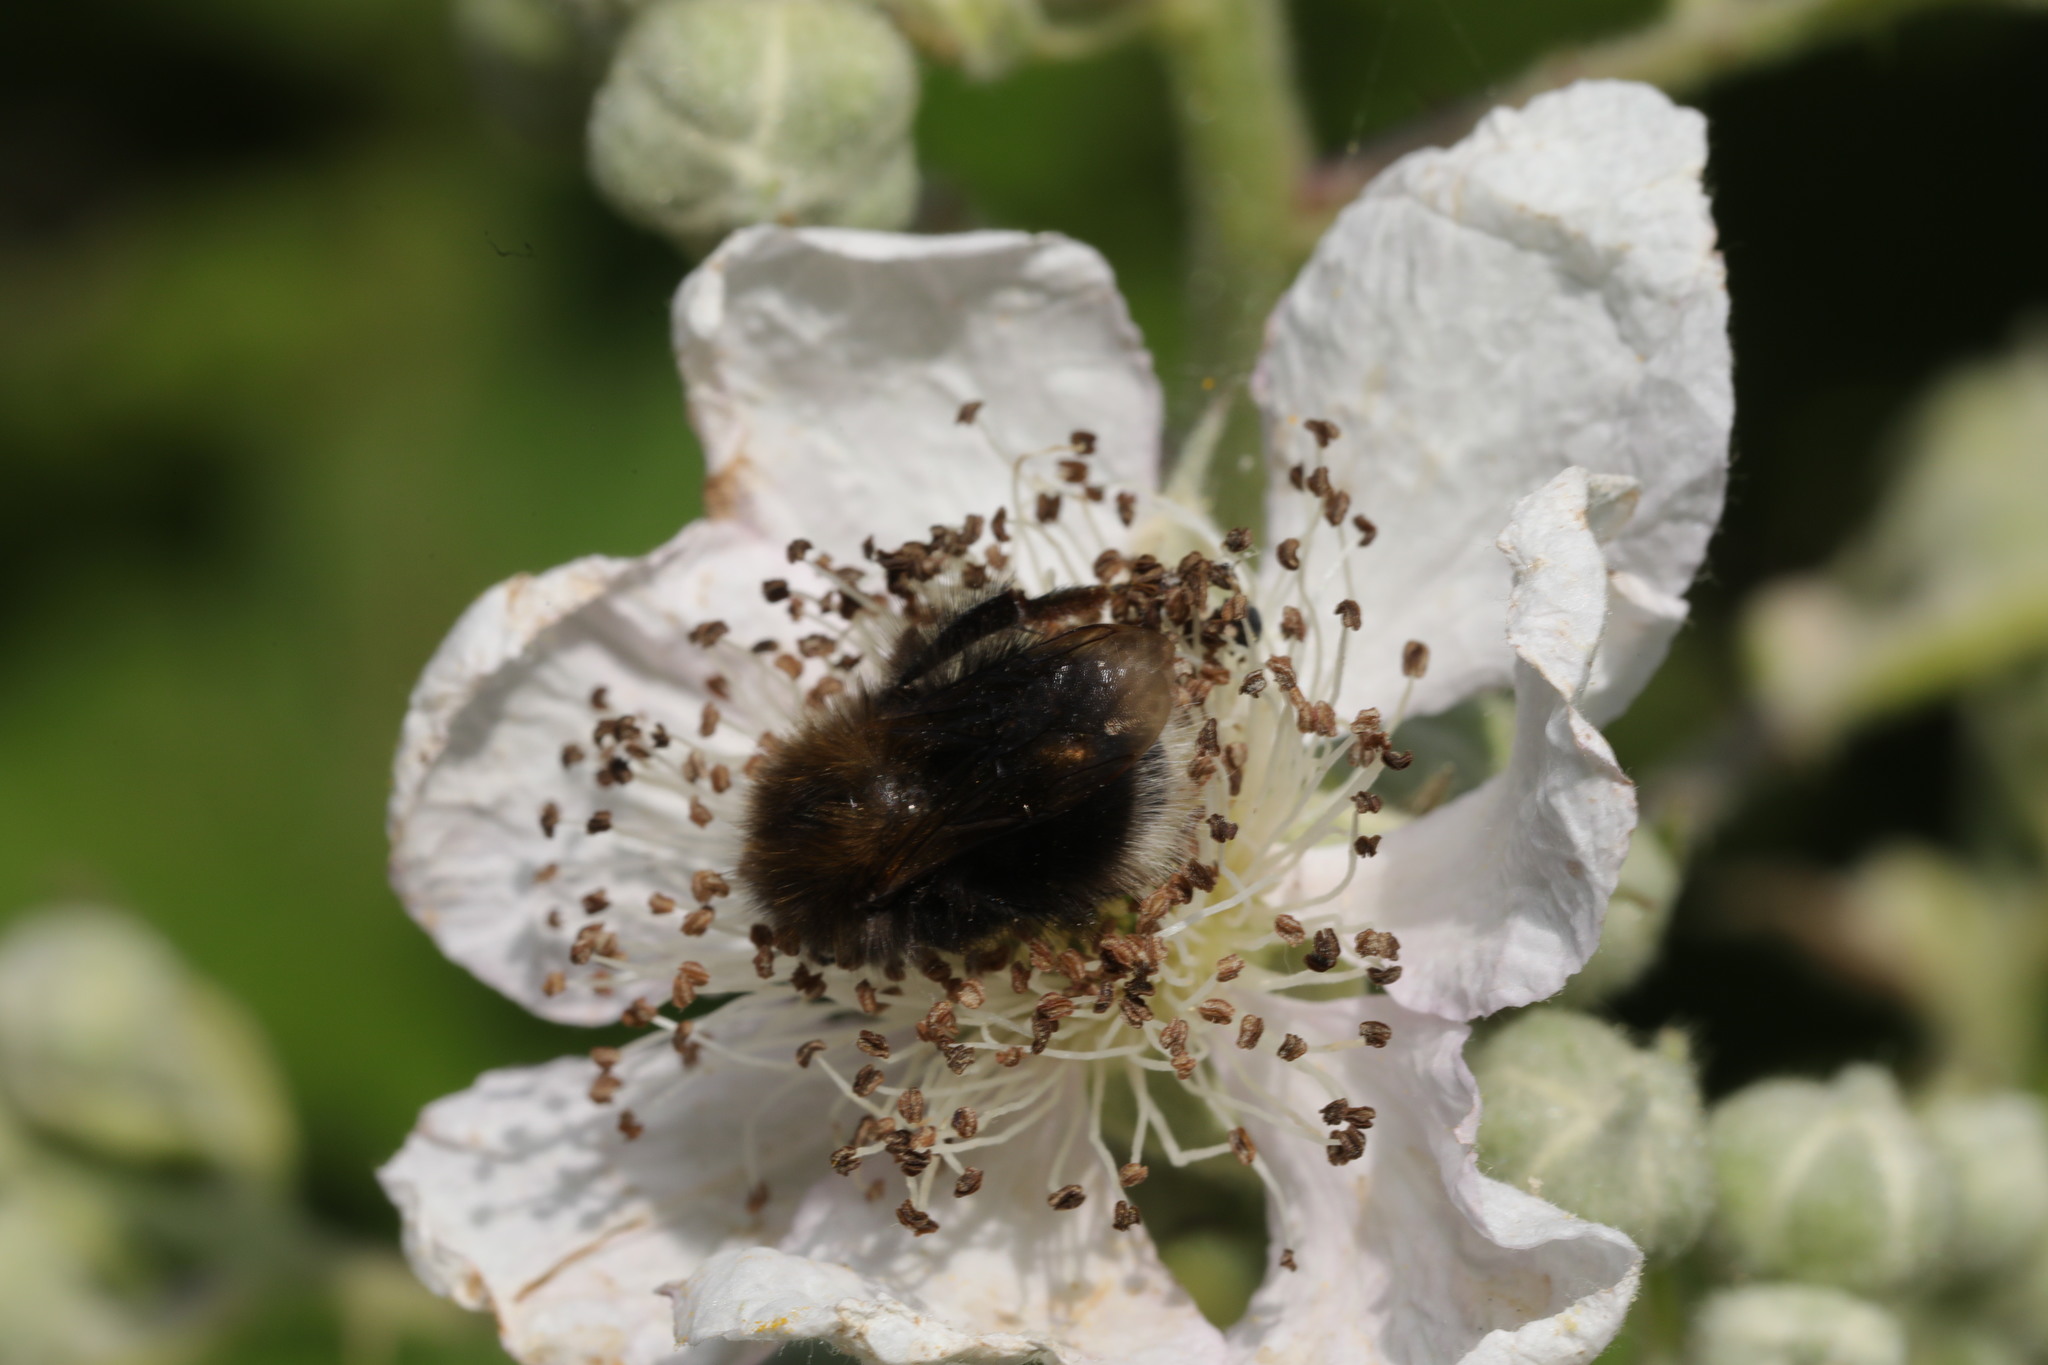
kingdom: Animalia
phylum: Arthropoda
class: Insecta
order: Hymenoptera
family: Apidae
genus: Bombus
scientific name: Bombus hypnorum
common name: New garden bumblebee
